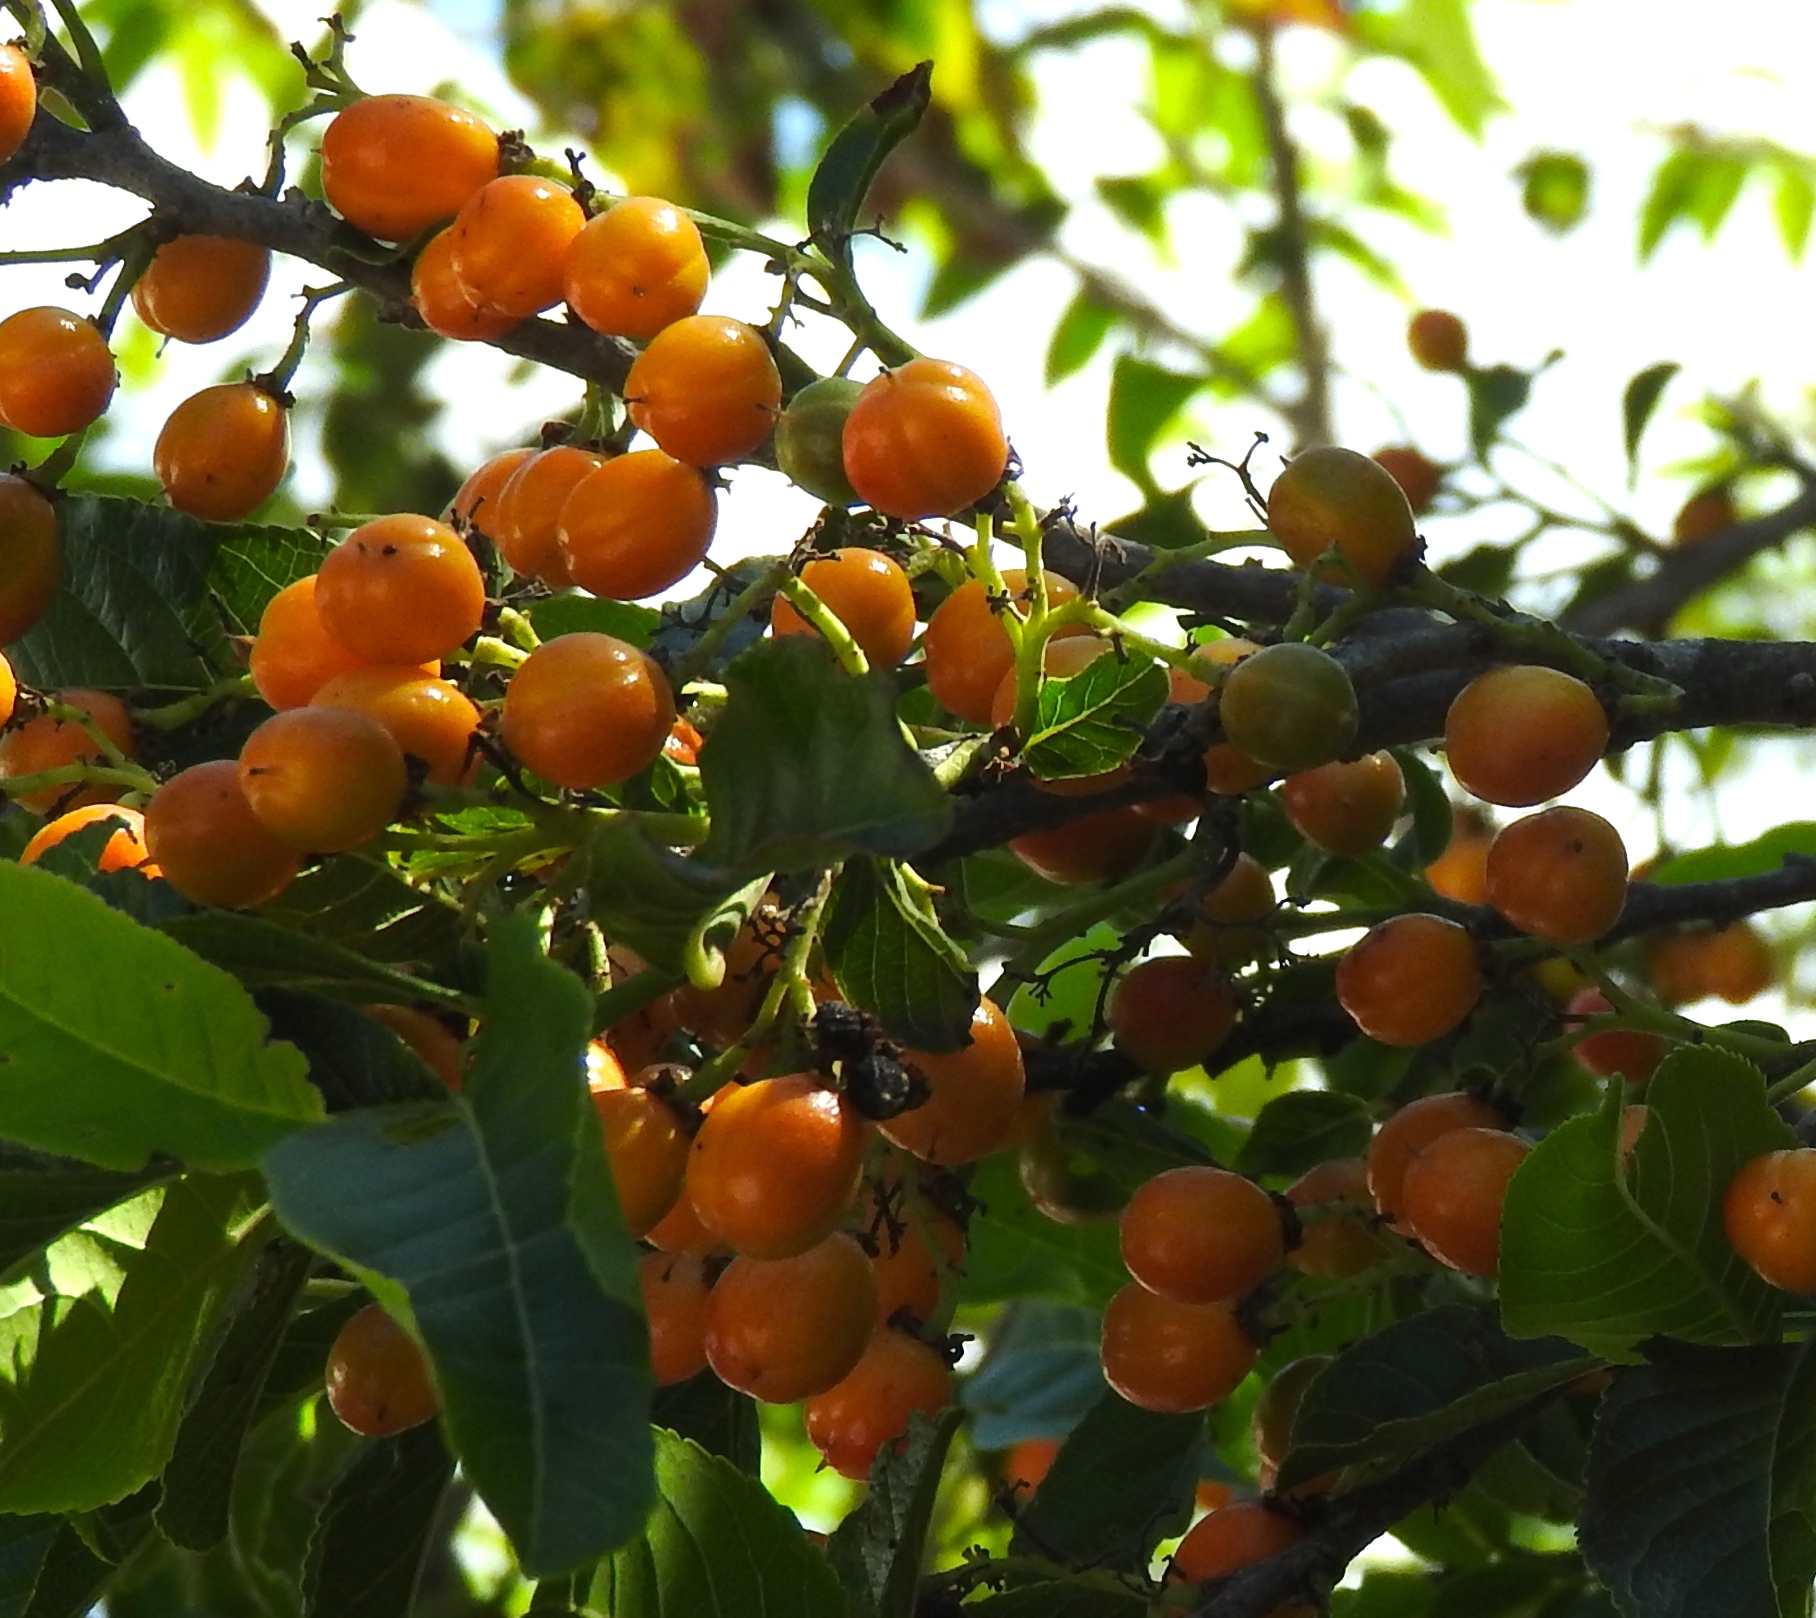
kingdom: Plantae
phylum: Tracheophyta
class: Magnoliopsida
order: Malpighiales
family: Salicaceae
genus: Casearia
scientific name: Casearia corymbosa
